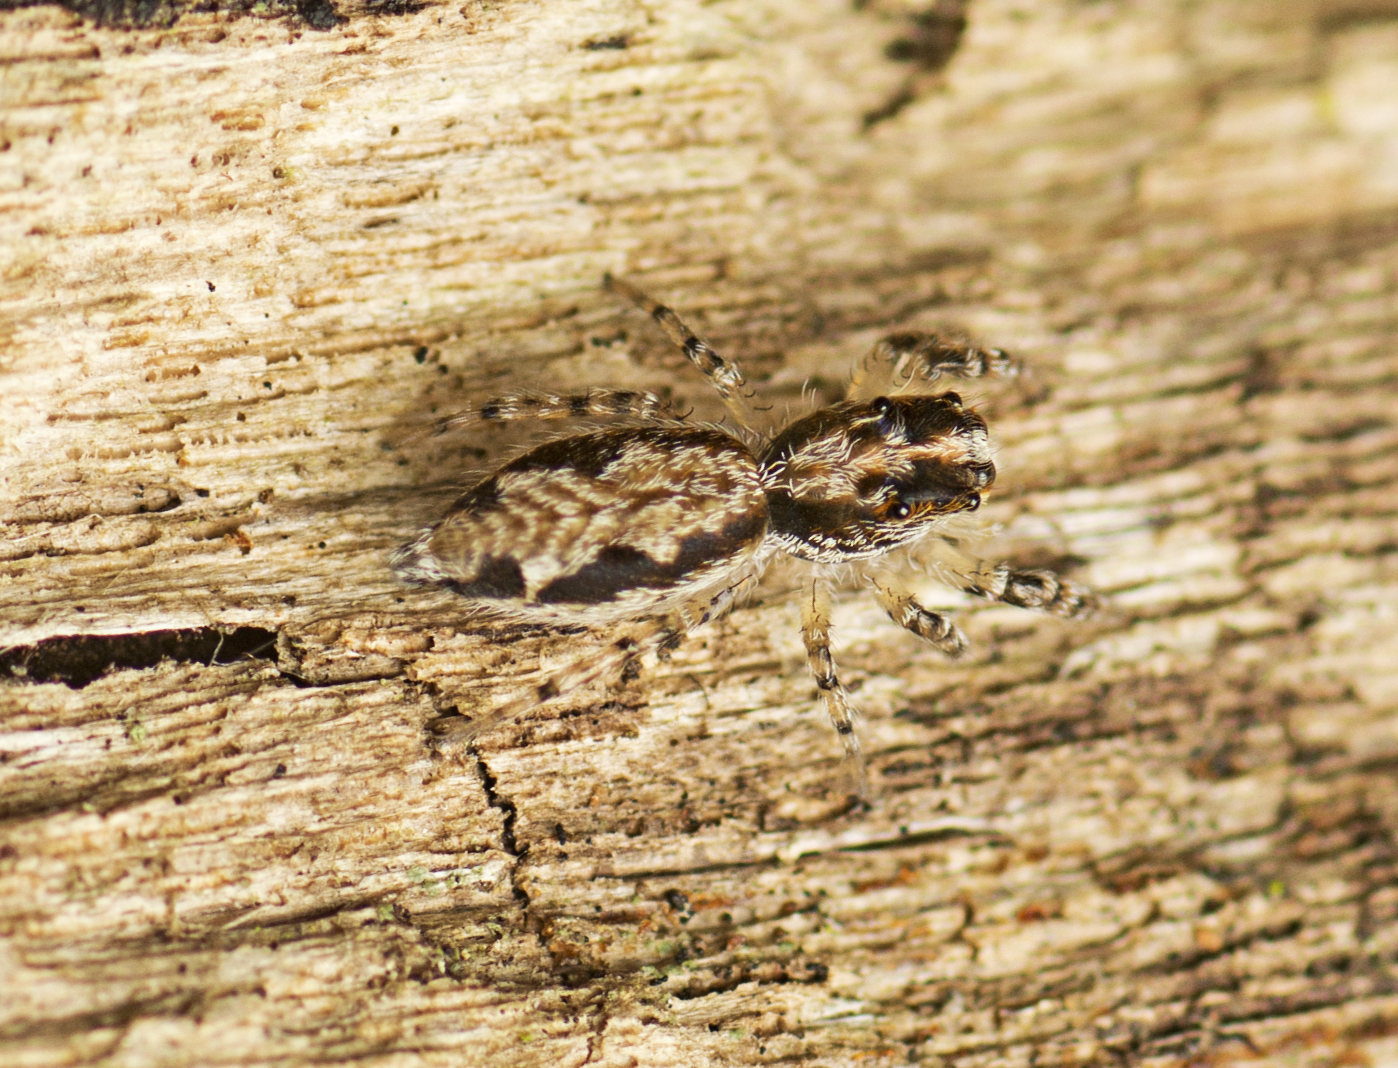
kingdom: Animalia
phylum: Arthropoda
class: Arachnida
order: Araneae
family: Salticidae
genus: Apricia
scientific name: Apricia bracteata
